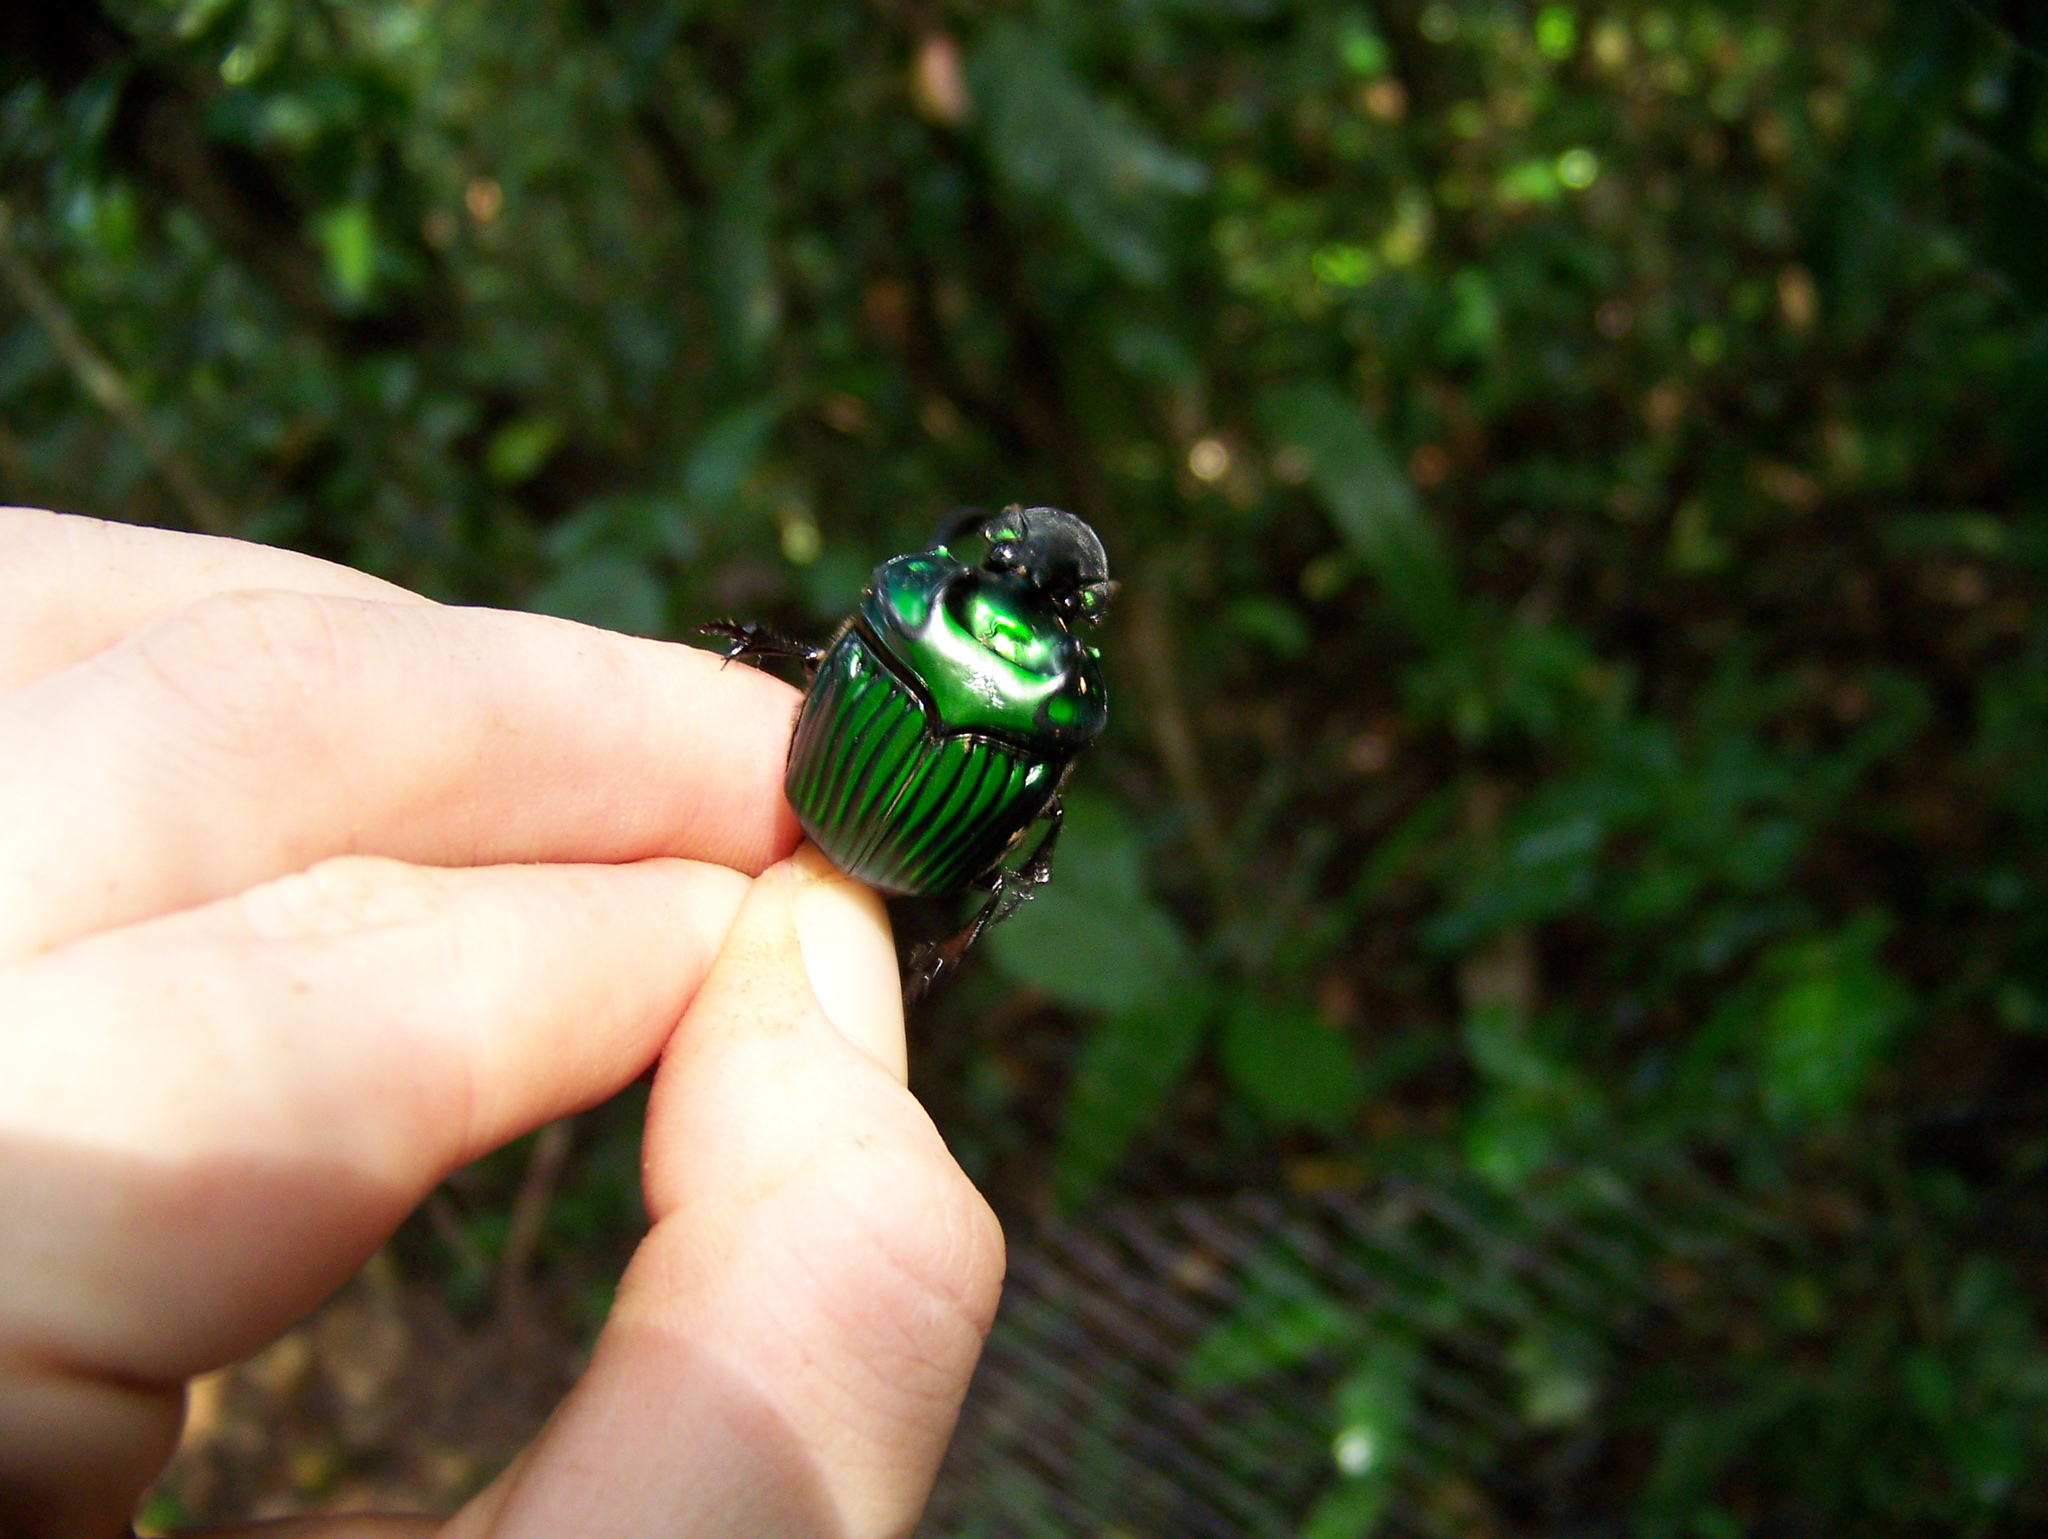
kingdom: Animalia
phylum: Arthropoda
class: Insecta
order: Coleoptera
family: Scarabaeidae
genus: Oxysternon
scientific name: Oxysternon conspicillatum
